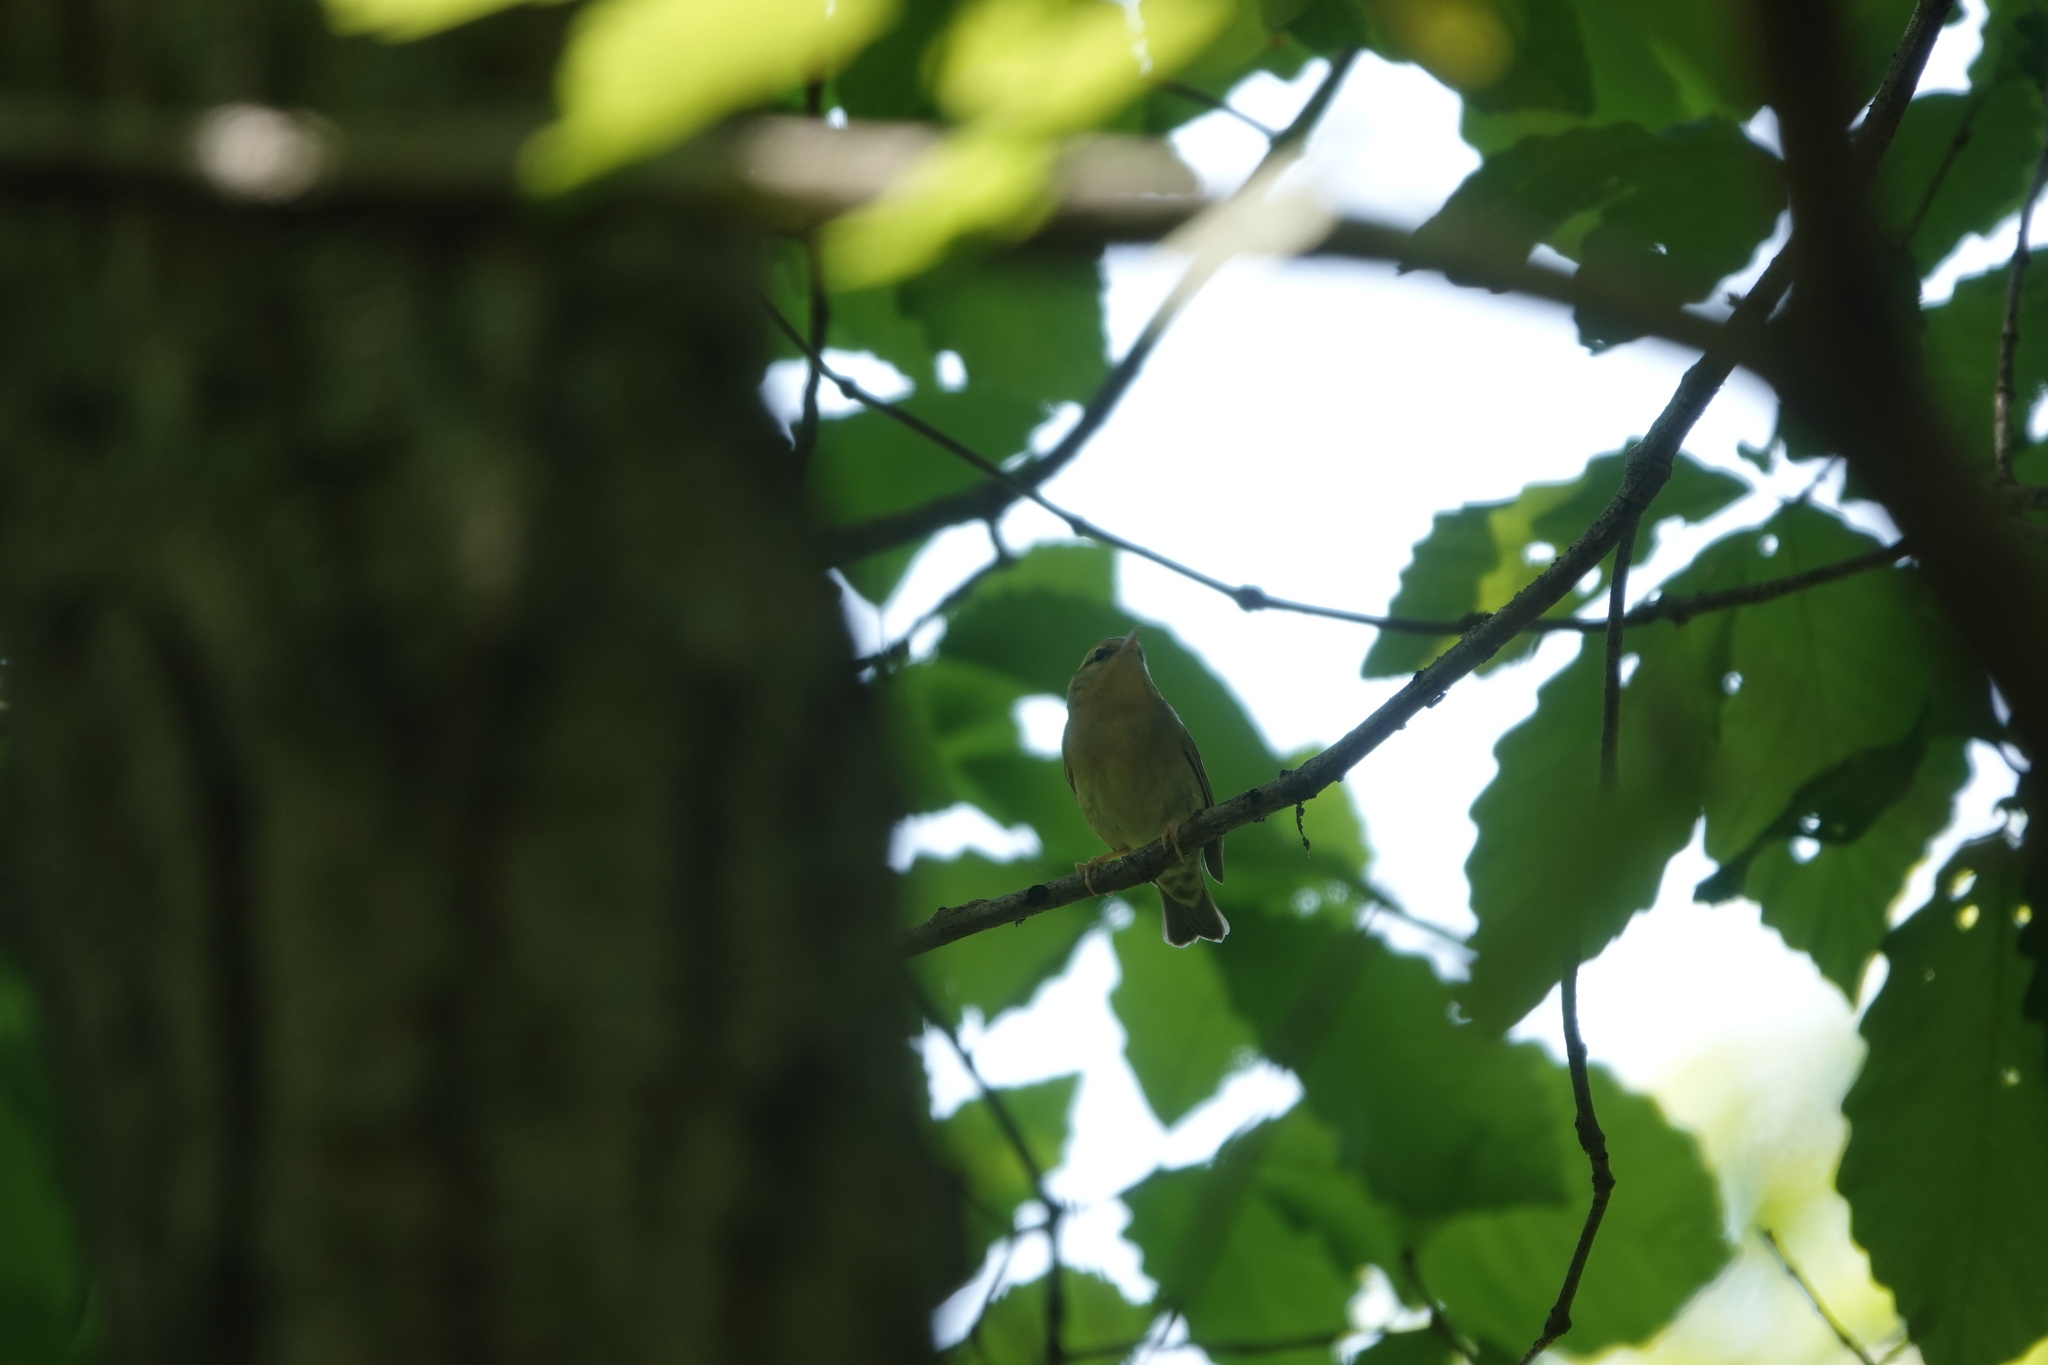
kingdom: Animalia
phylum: Chordata
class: Aves
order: Passeriformes
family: Parulidae
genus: Helmitheros
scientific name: Helmitheros vermivorum
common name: Worm-eating warbler
